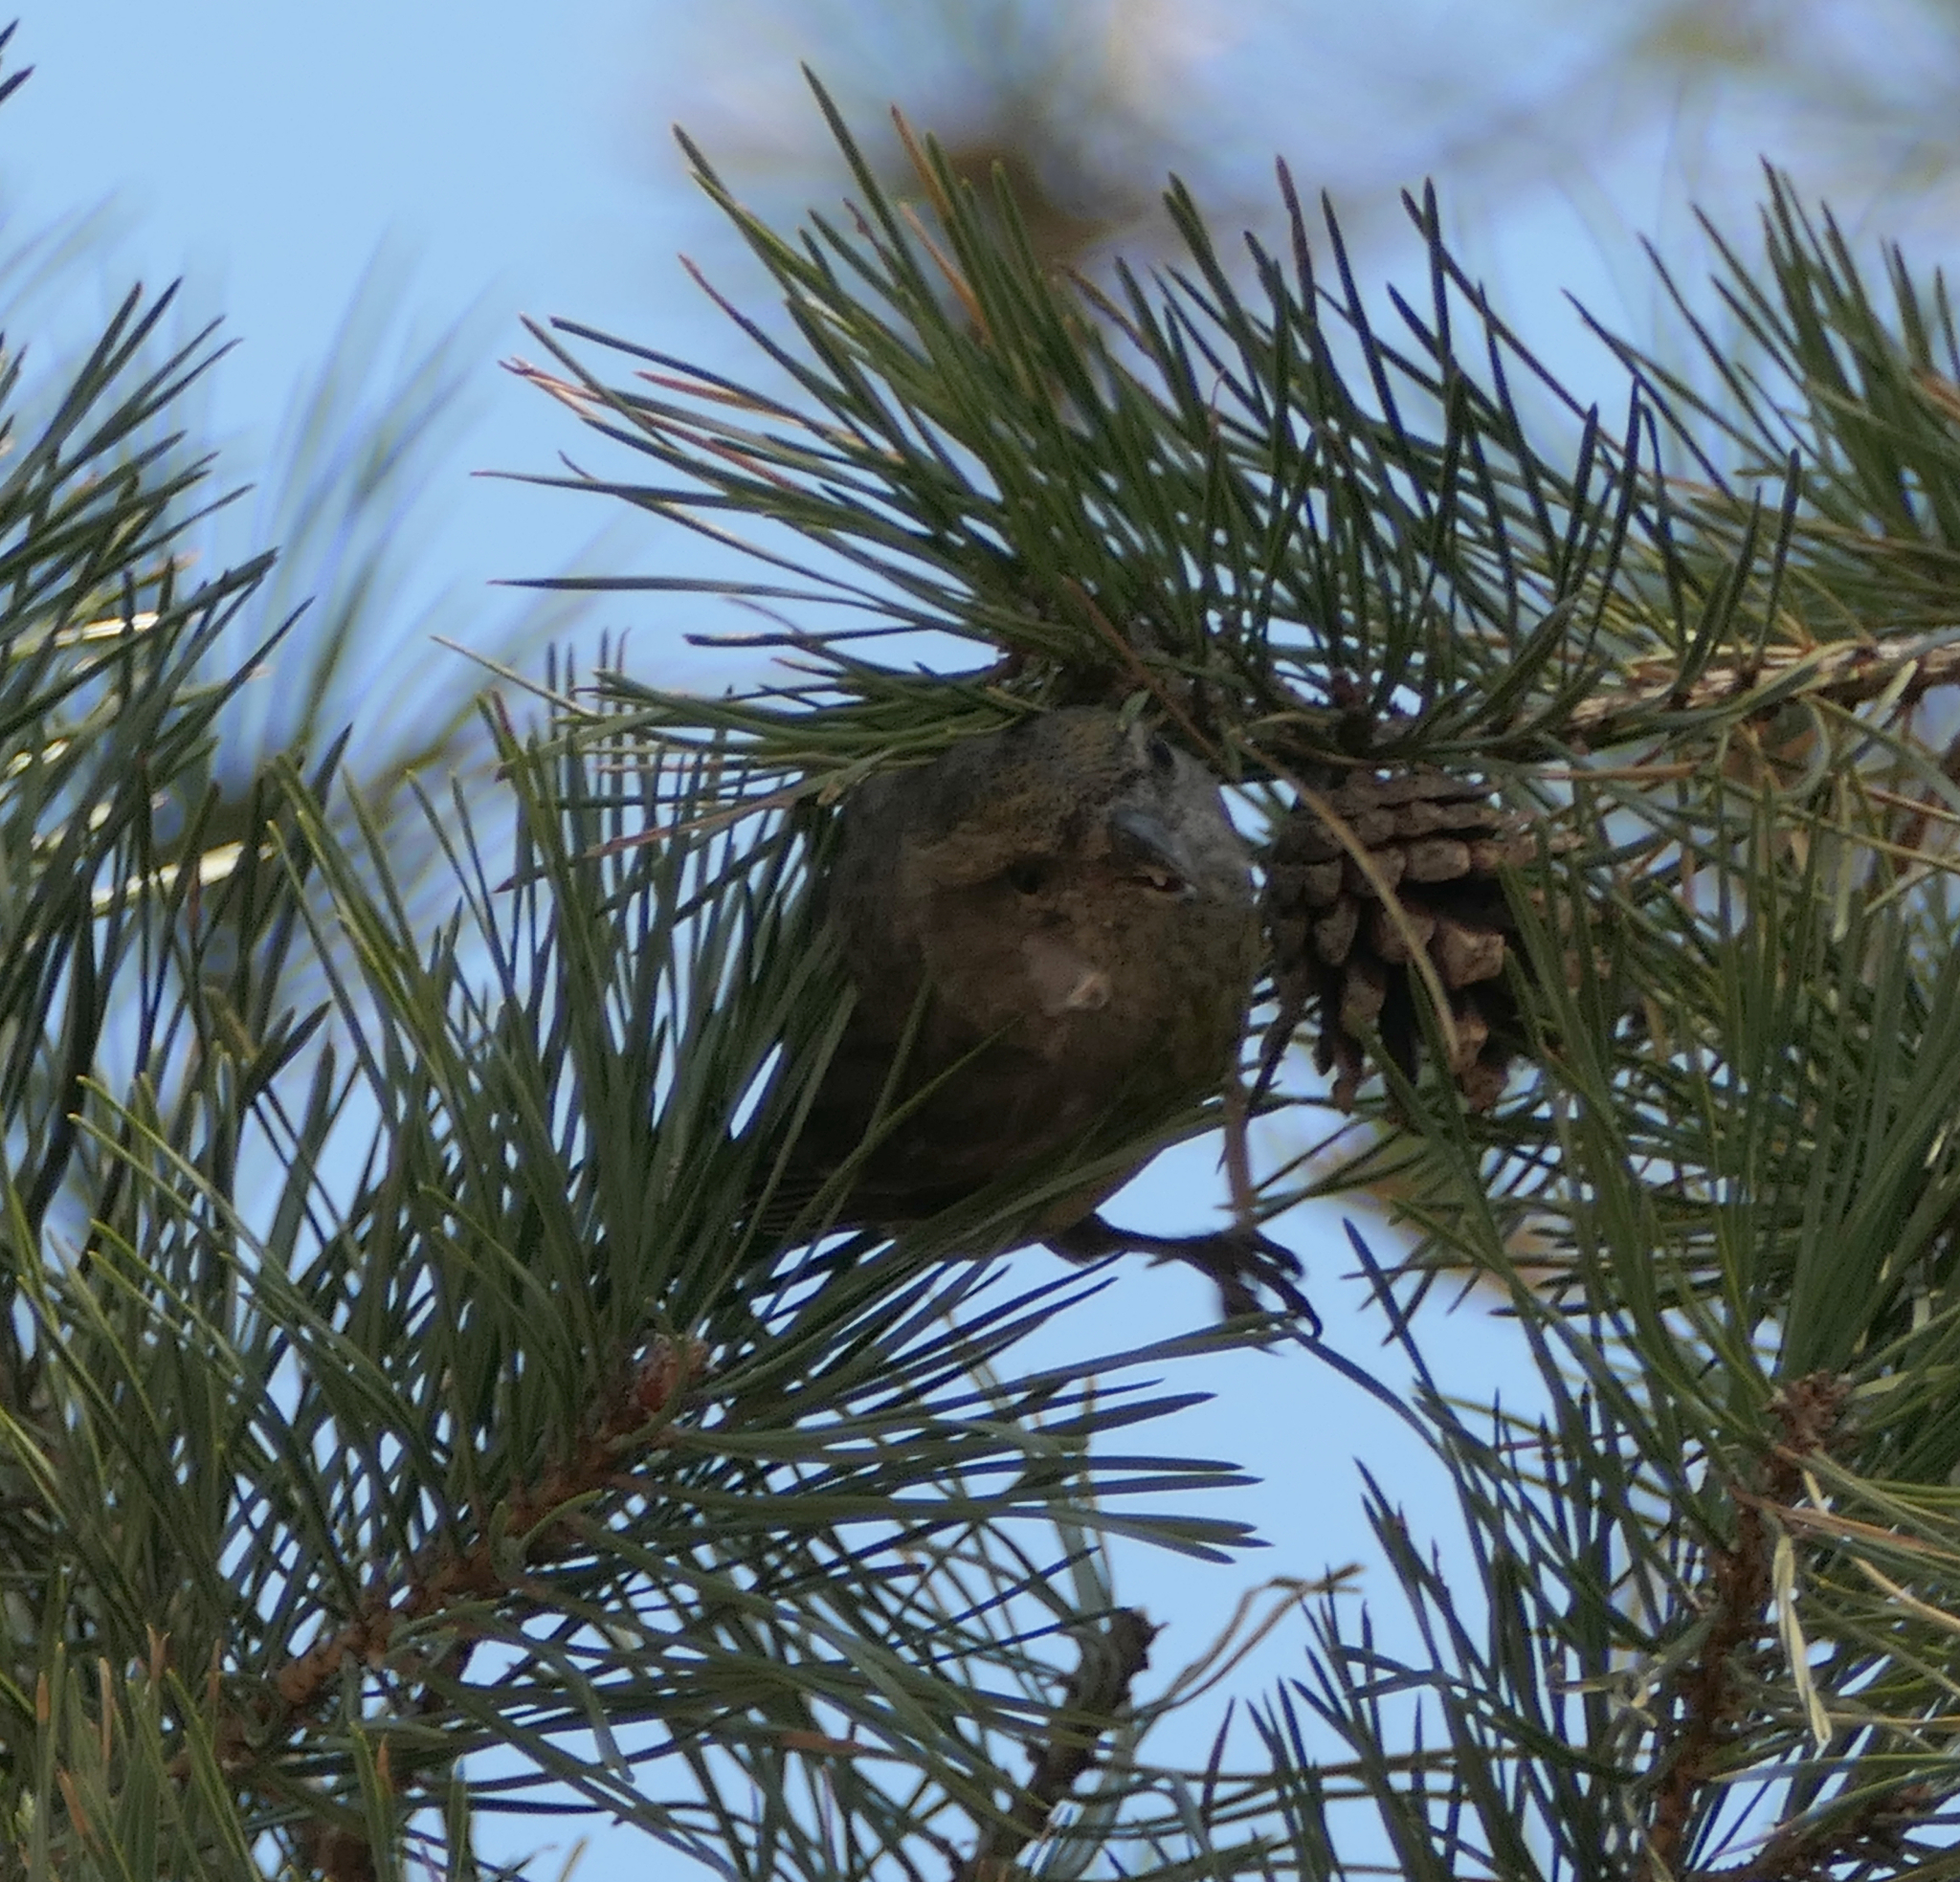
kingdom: Animalia
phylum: Chordata
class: Aves
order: Passeriformes
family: Fringillidae
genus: Loxia
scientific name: Loxia curvirostra
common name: Red crossbill
